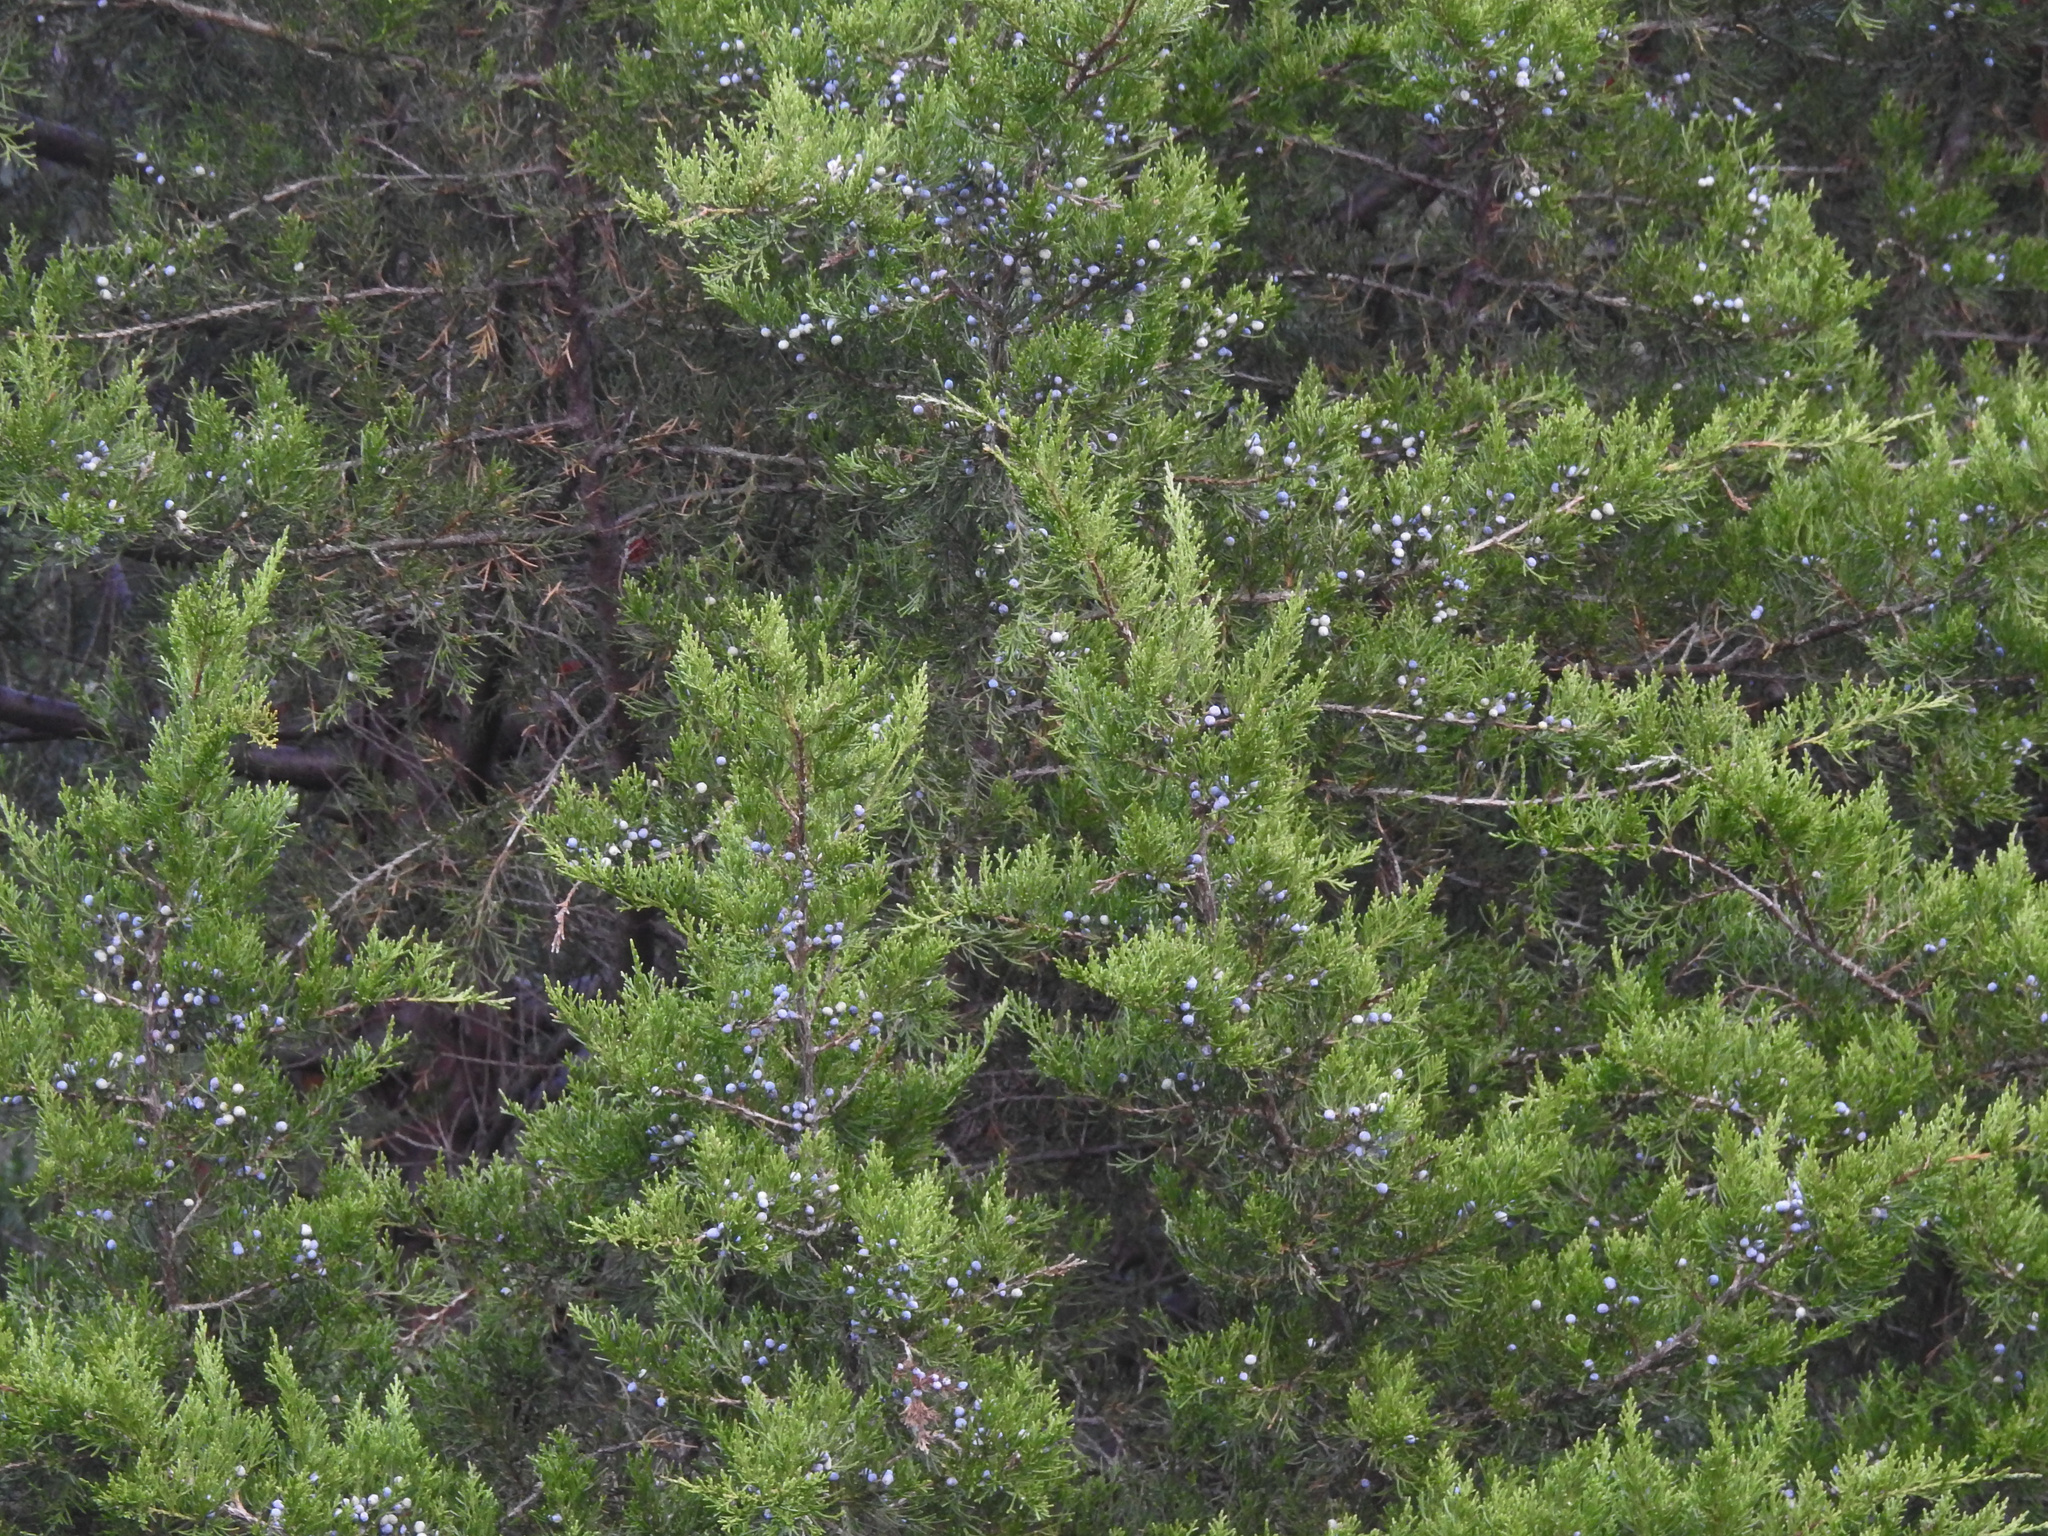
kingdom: Plantae
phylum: Tracheophyta
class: Pinopsida
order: Pinales
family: Cupressaceae
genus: Juniperus
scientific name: Juniperus virginiana
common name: Red juniper
